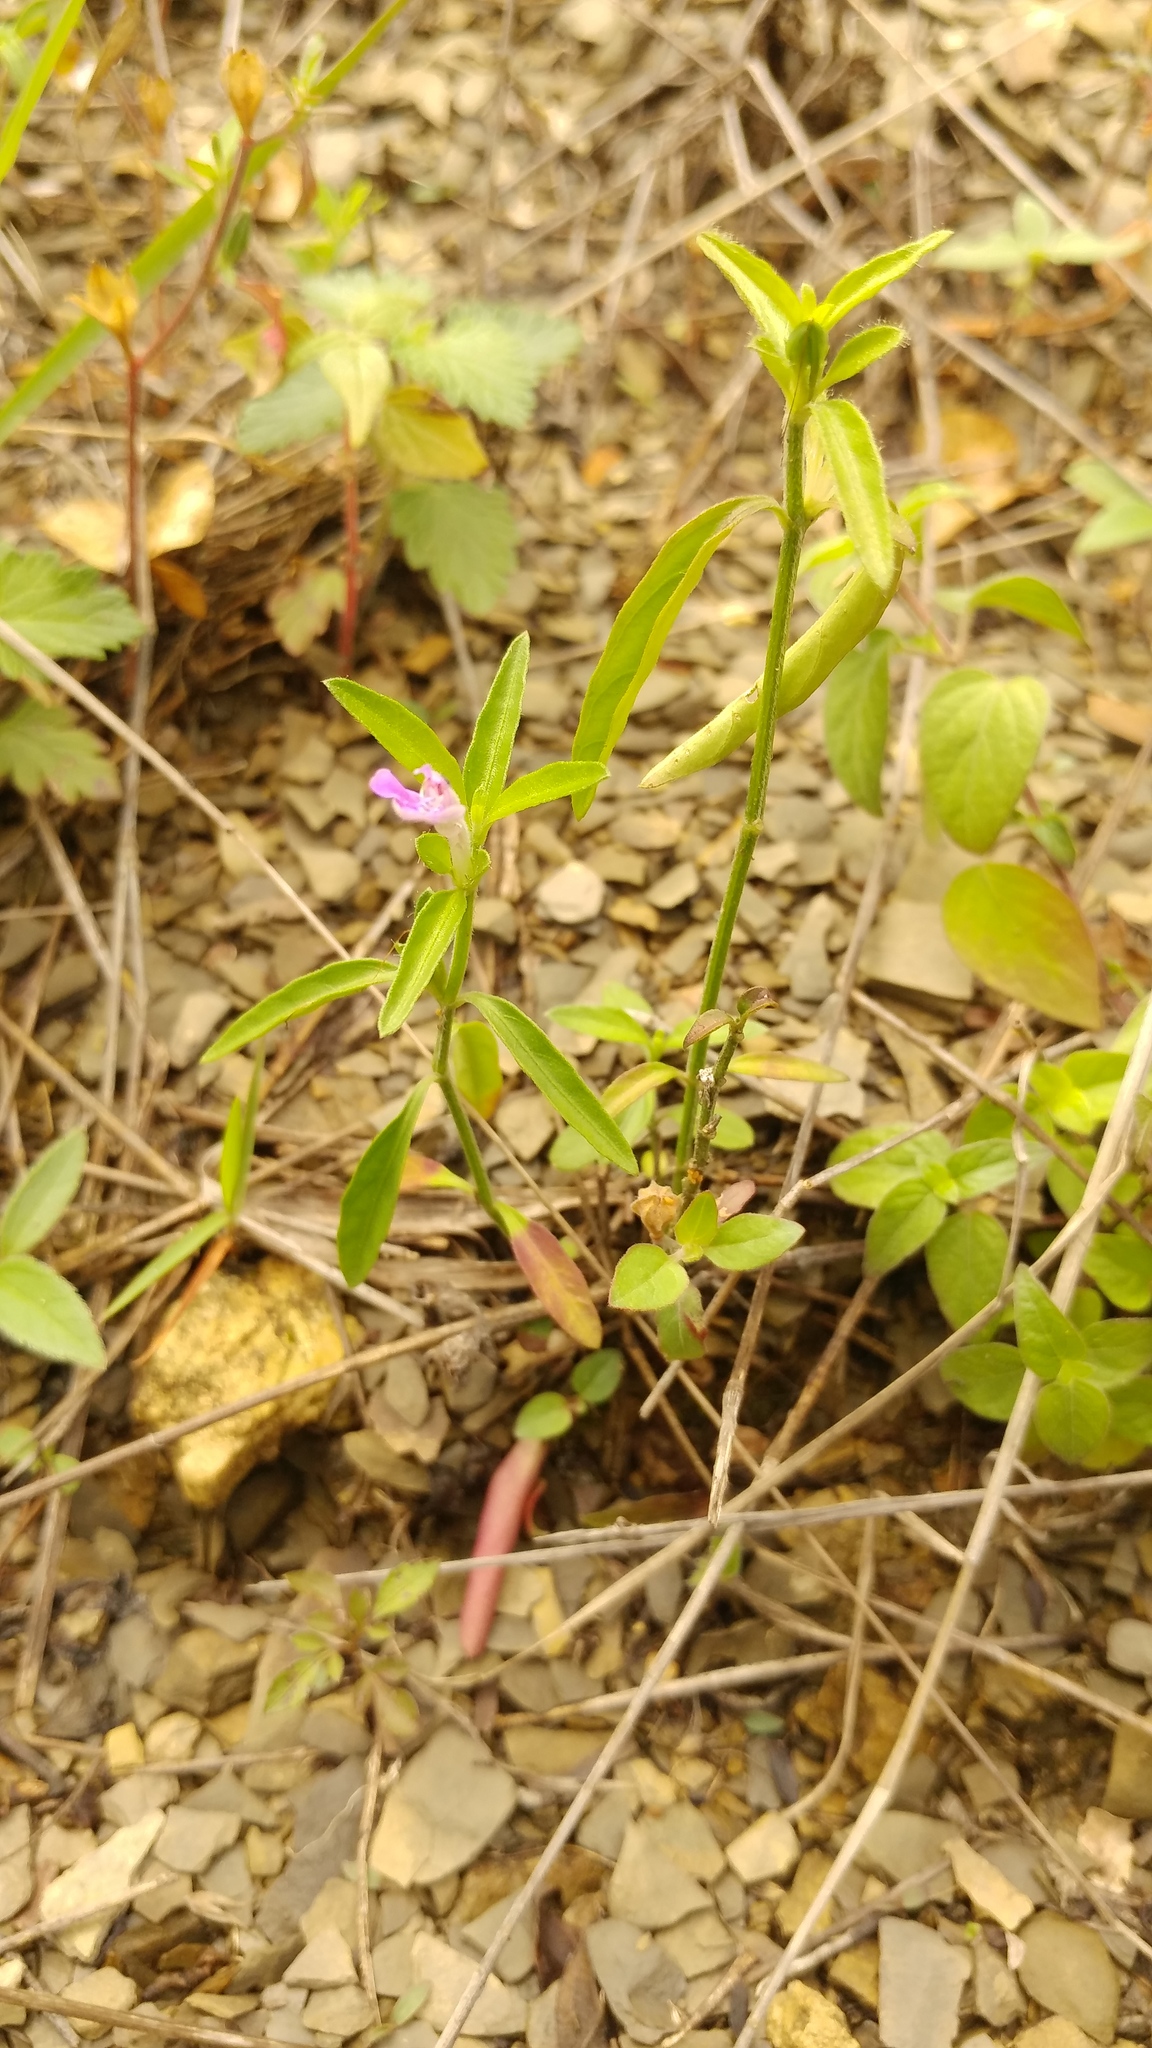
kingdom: Plantae
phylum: Tracheophyta
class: Magnoliopsida
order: Lamiales
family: Acanthaceae
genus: Justicia
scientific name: Justicia pilosella
